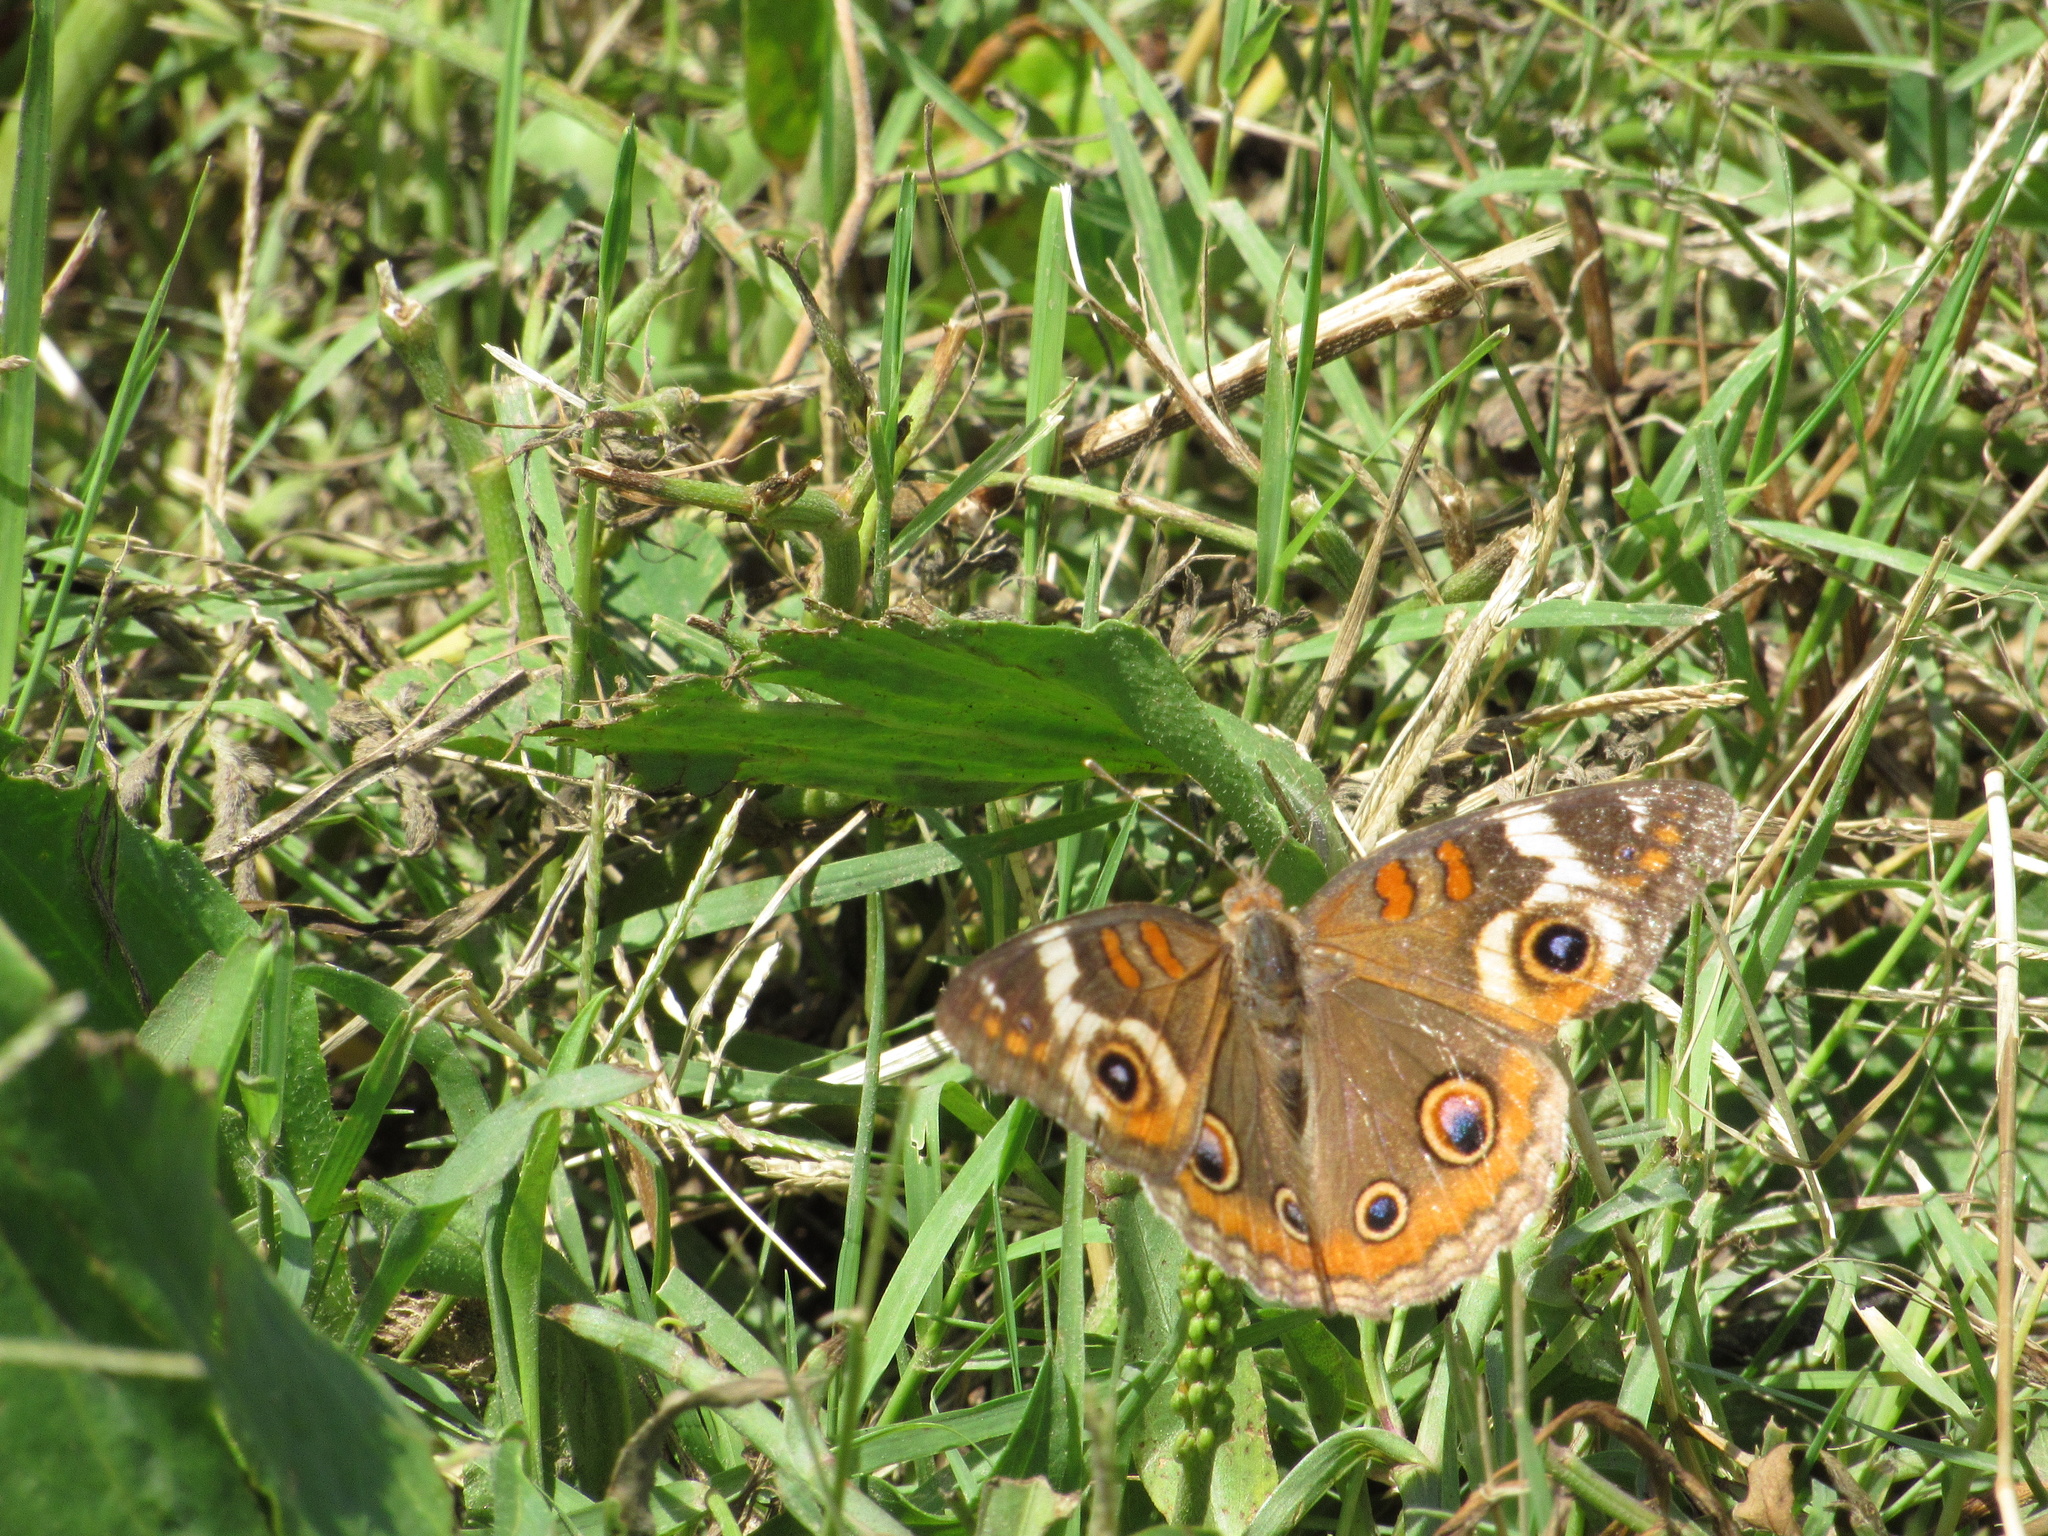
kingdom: Animalia
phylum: Arthropoda
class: Insecta
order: Lepidoptera
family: Nymphalidae
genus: Junonia
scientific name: Junonia coenia
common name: Common buckeye
